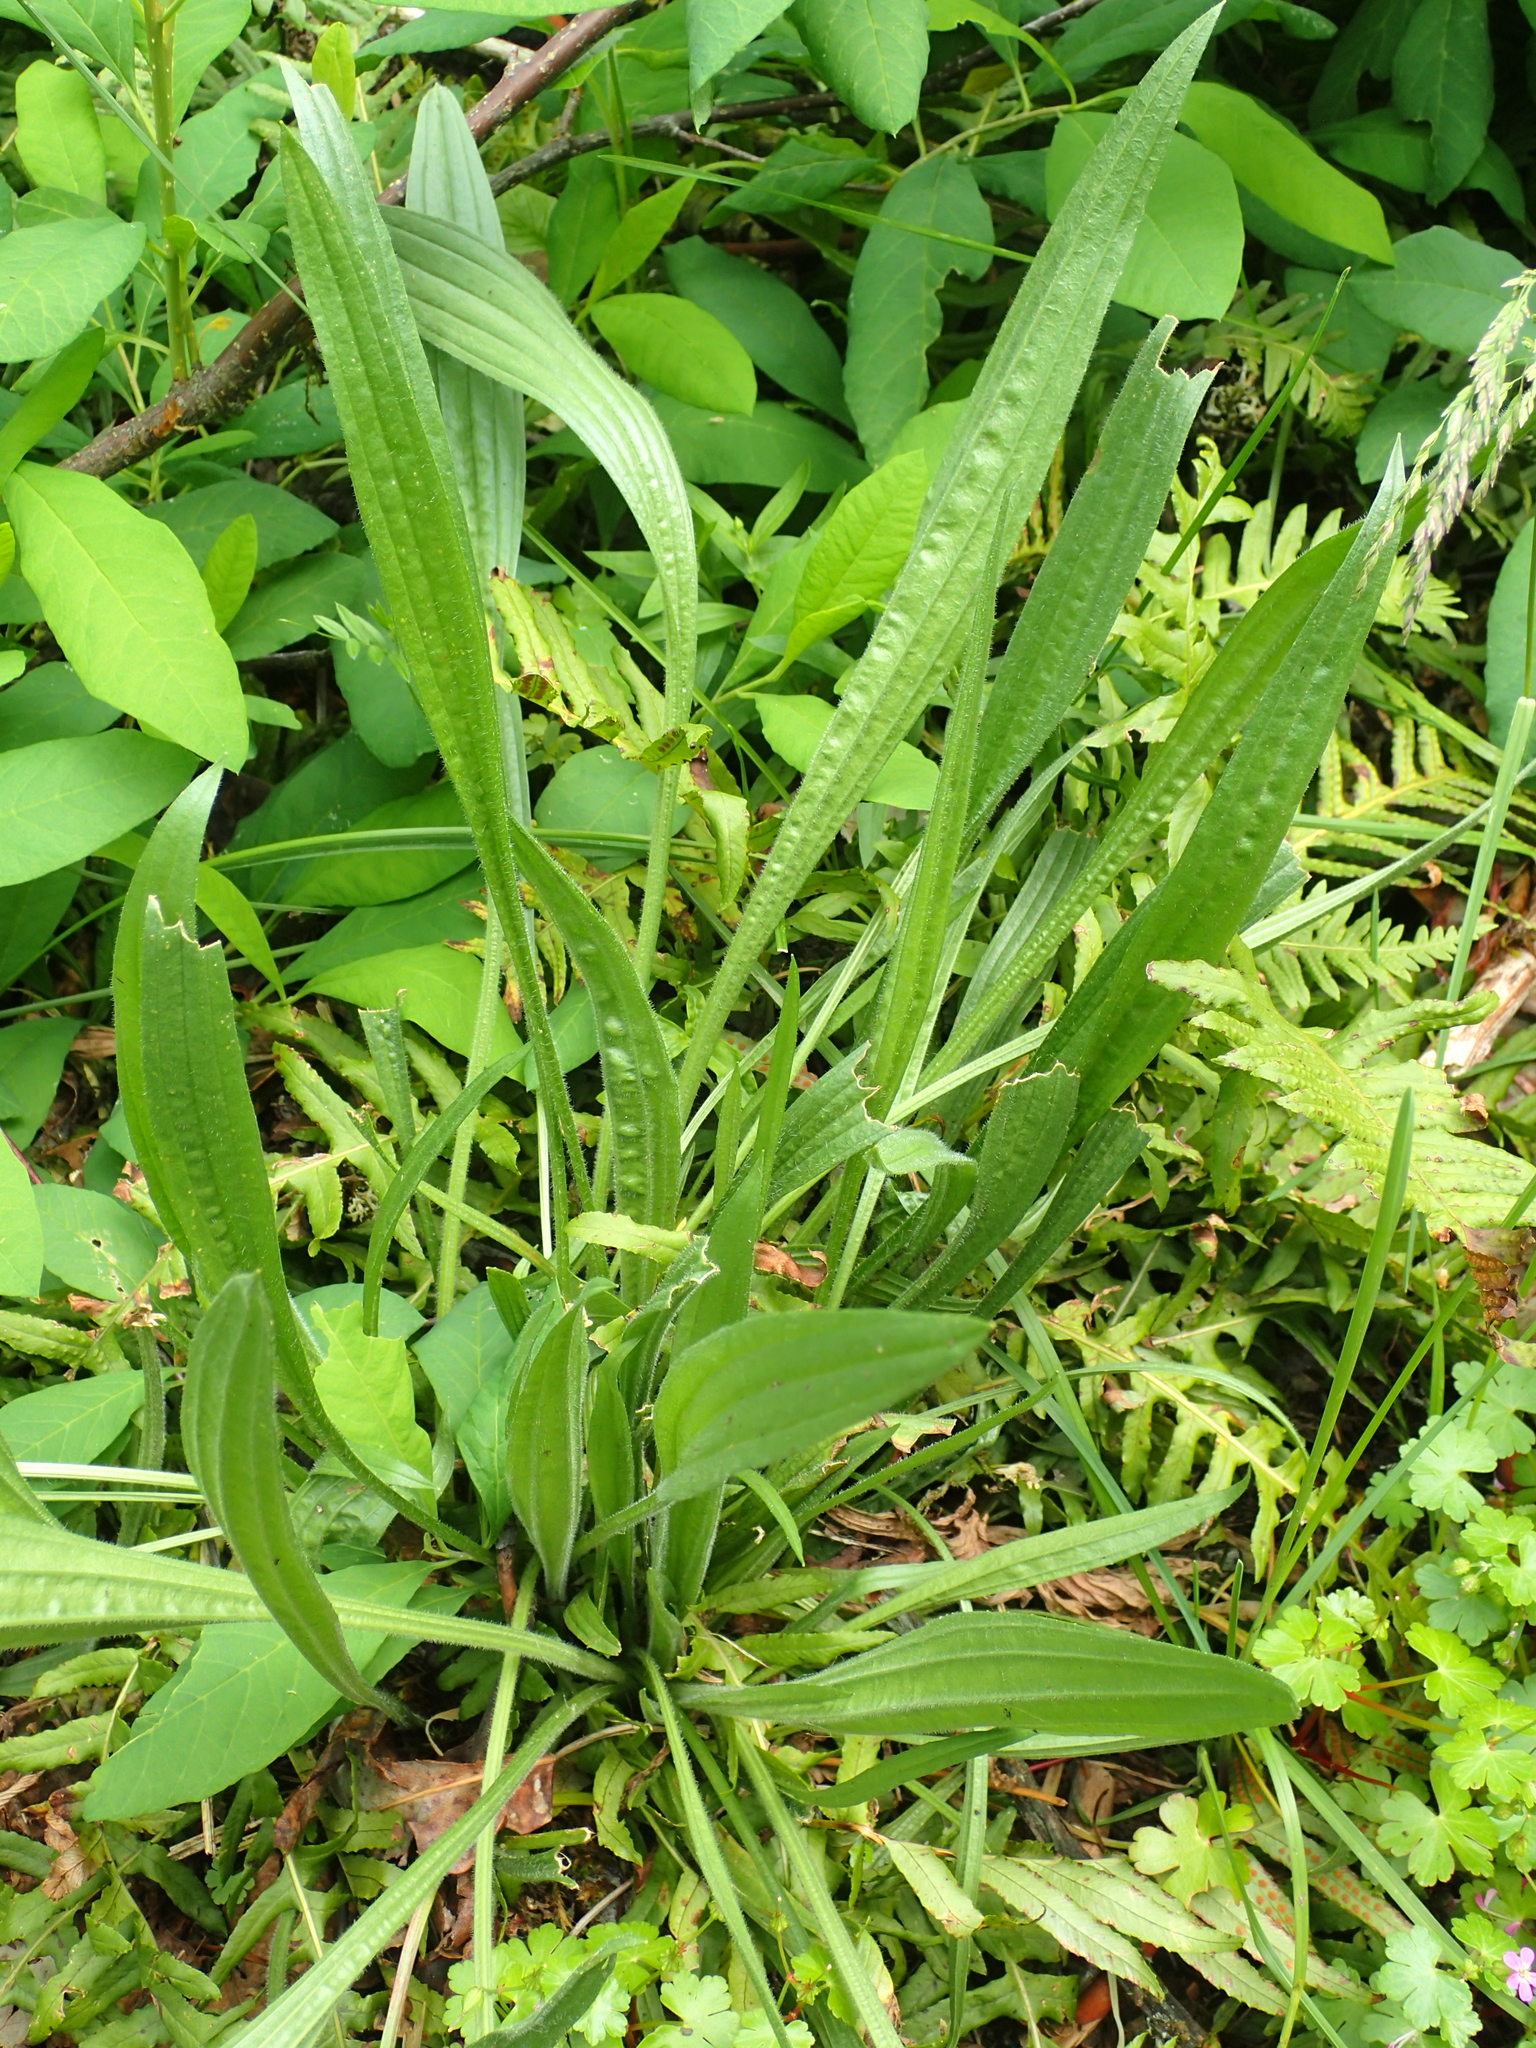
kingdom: Plantae
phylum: Tracheophyta
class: Magnoliopsida
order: Lamiales
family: Plantaginaceae
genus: Plantago
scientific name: Plantago lanceolata
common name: Ribwort plantain
